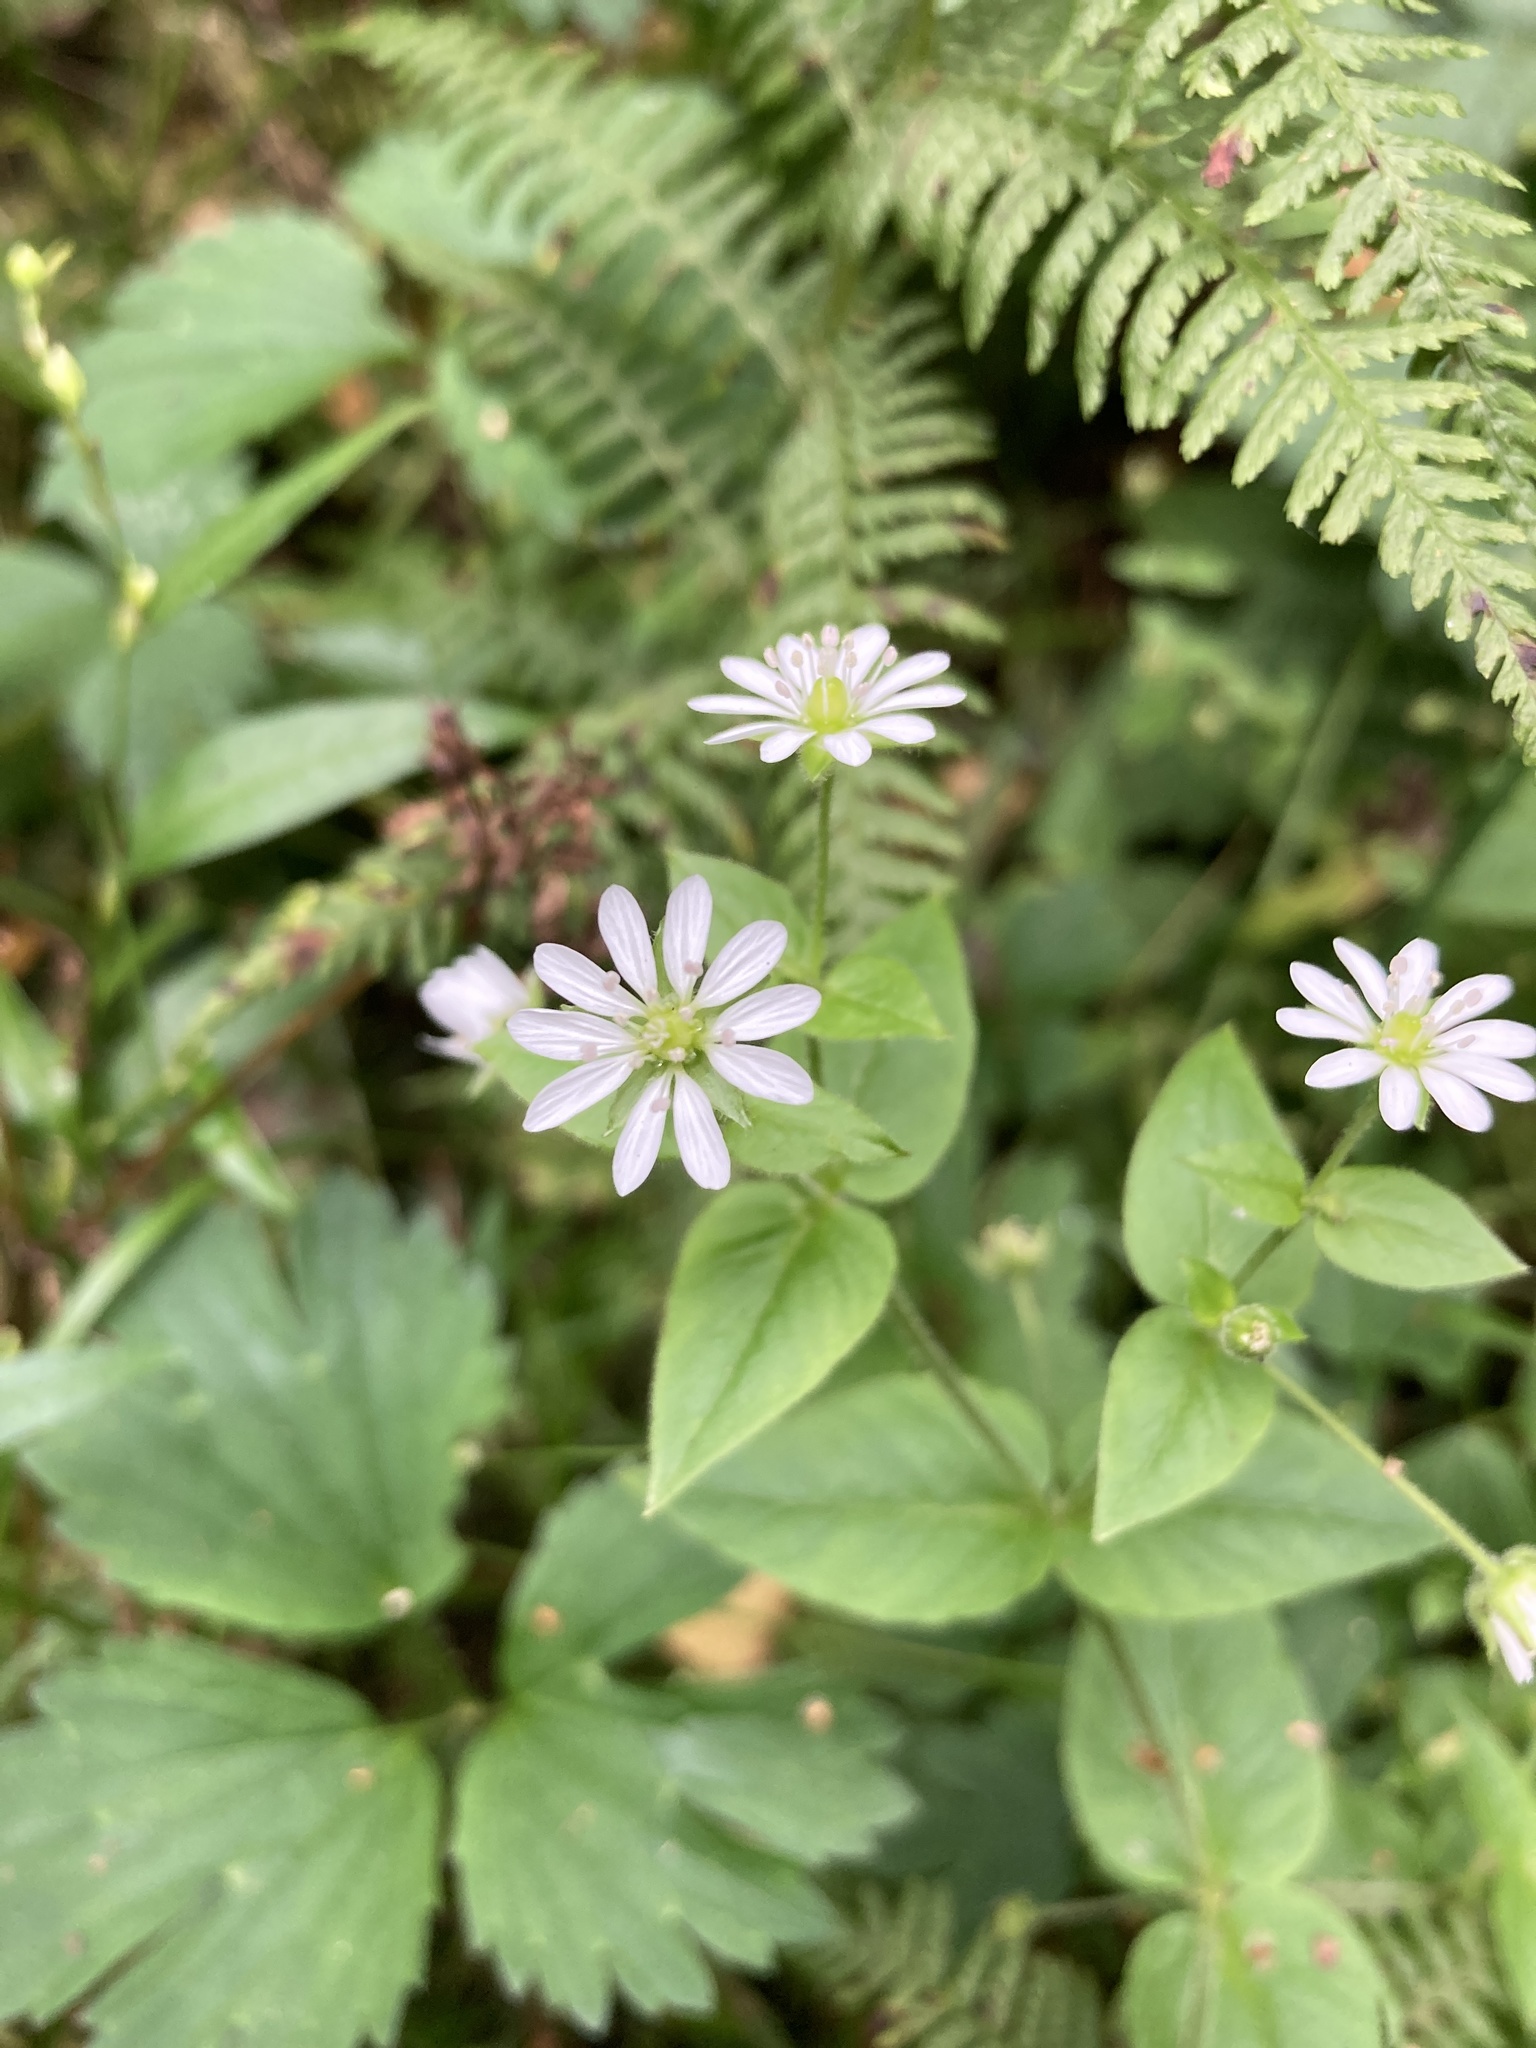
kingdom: Plantae
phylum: Tracheophyta
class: Magnoliopsida
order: Caryophyllales
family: Caryophyllaceae
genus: Stellaria
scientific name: Stellaria aquatica
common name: Water chickweed
